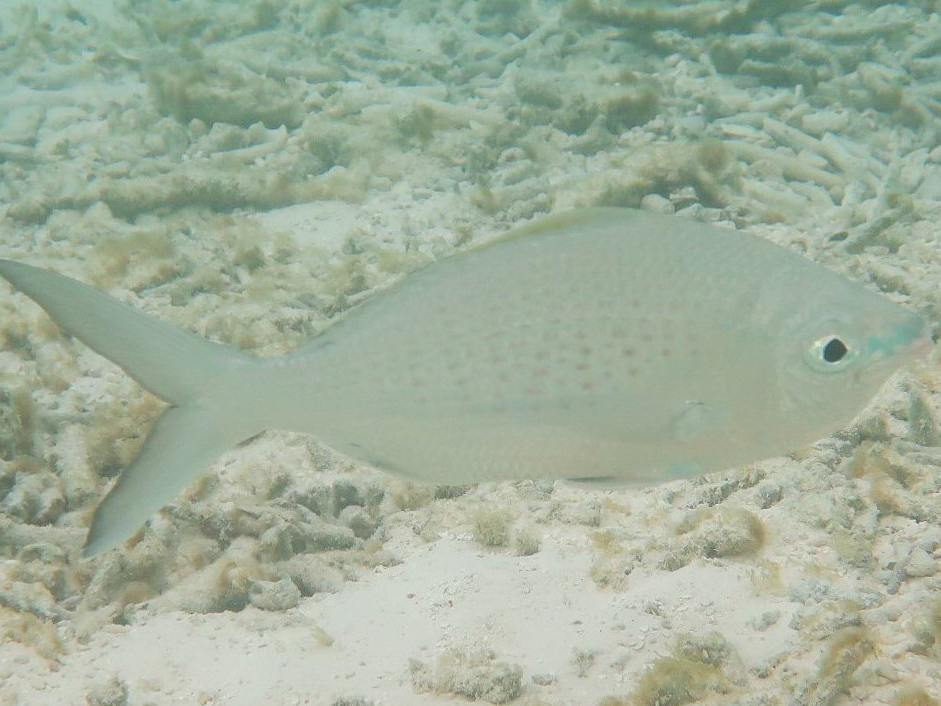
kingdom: Animalia
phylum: Chordata
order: Perciformes
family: Gerreidae
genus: Gerres
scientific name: Gerres longirostris
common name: Strongspine silver-biddy
